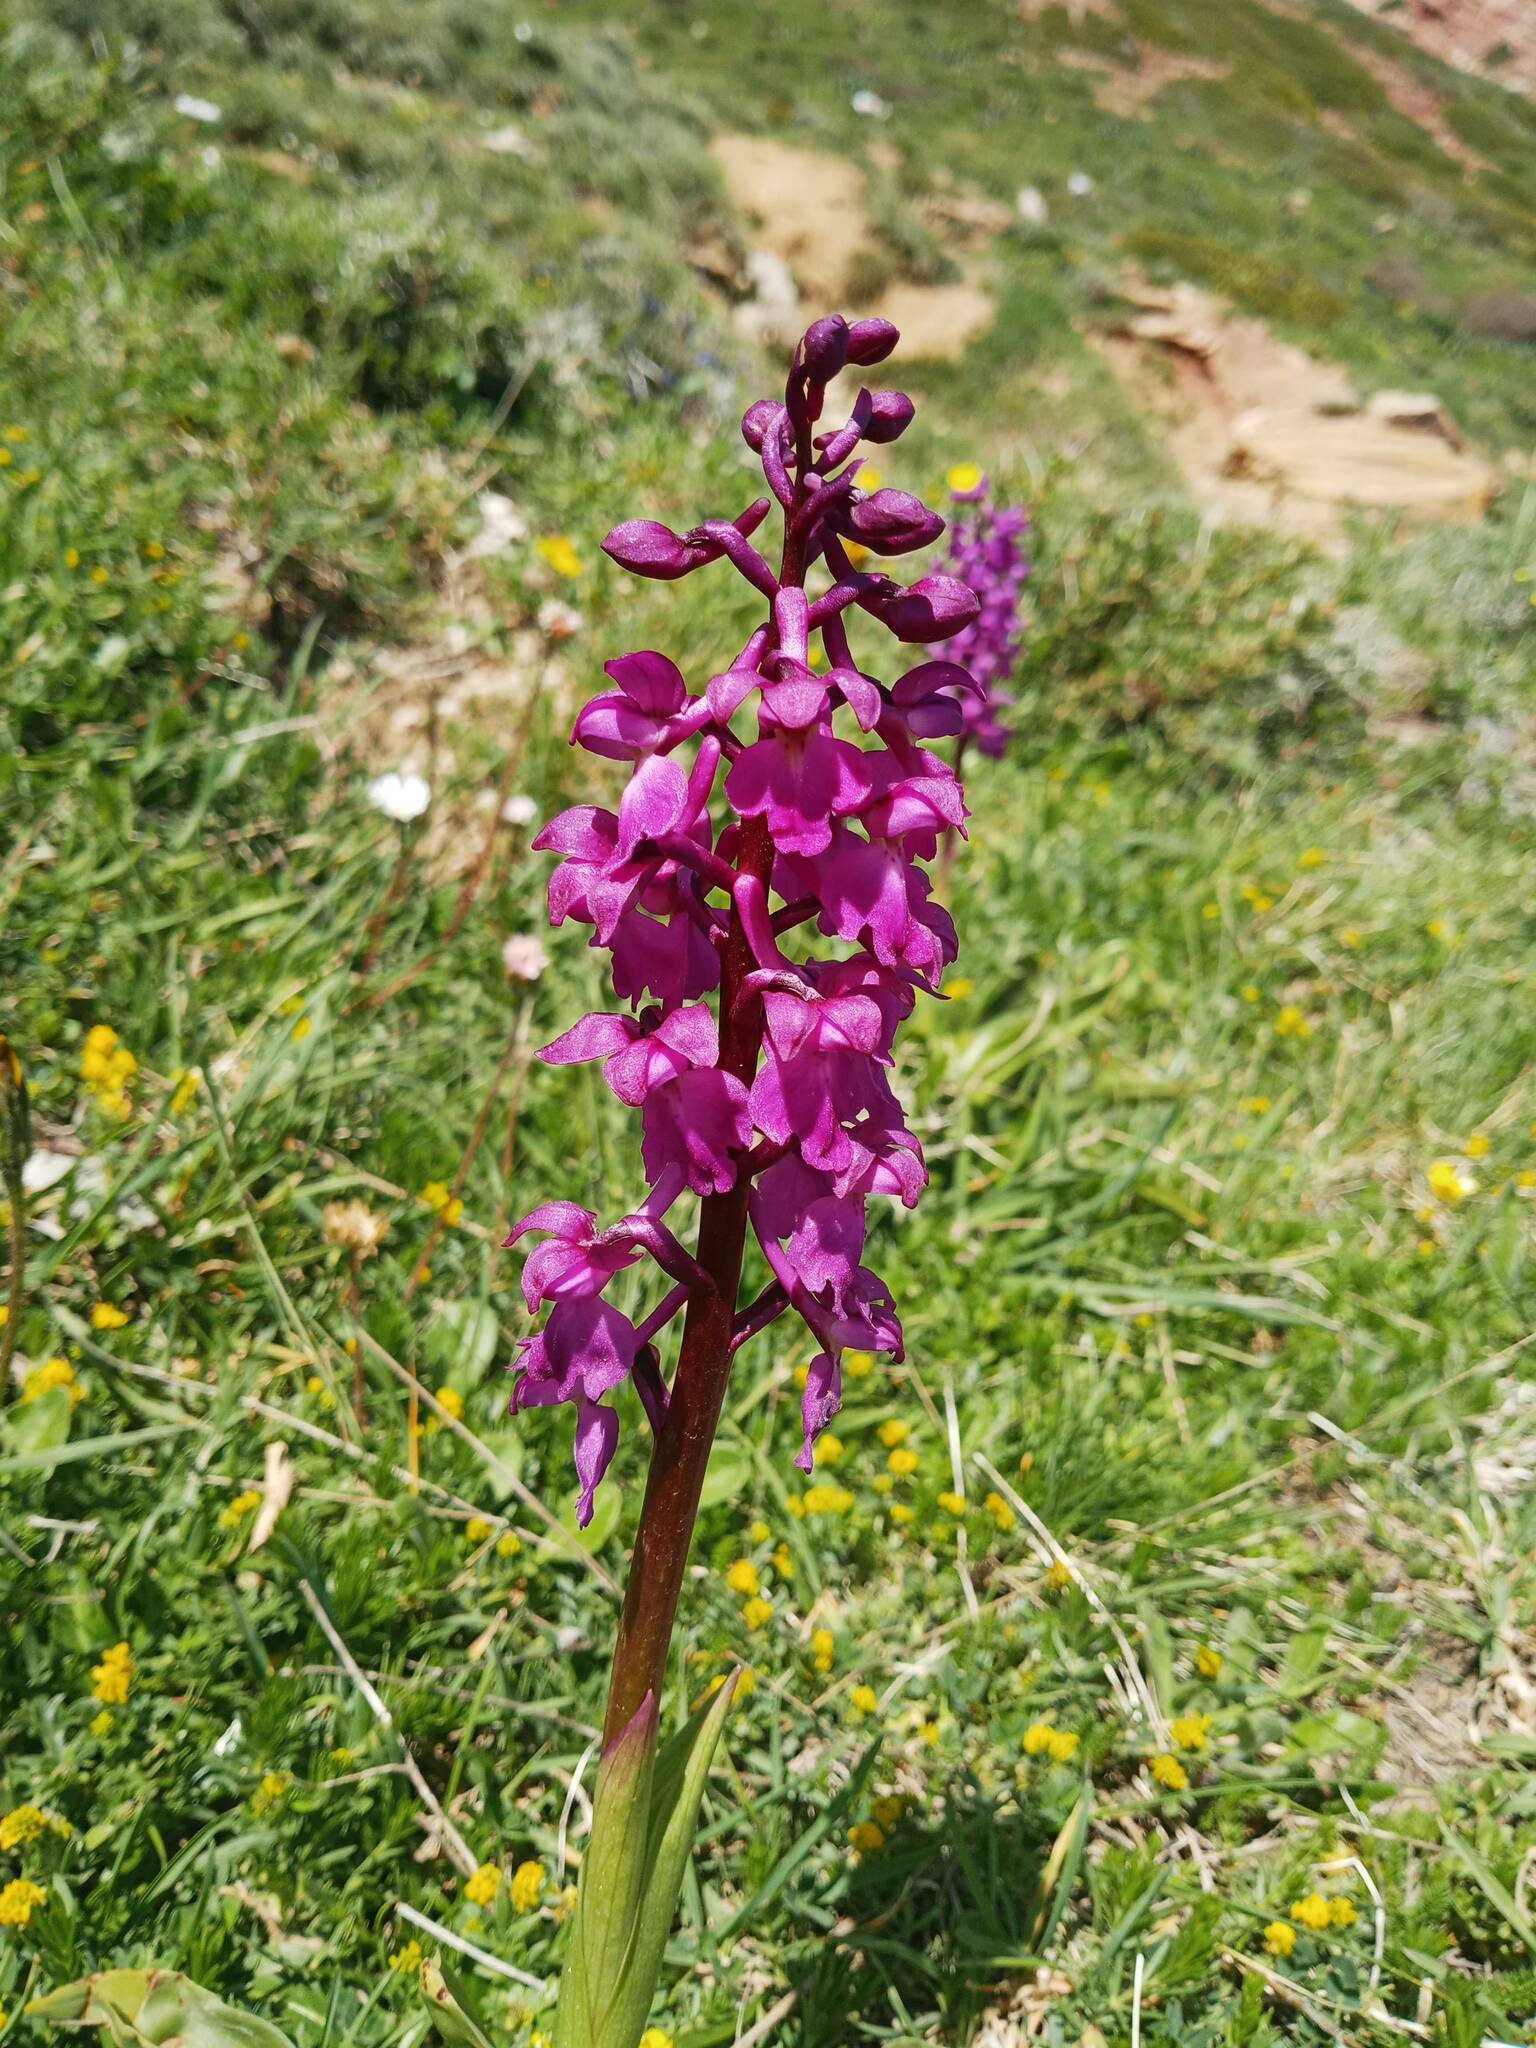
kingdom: Plantae
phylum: Tracheophyta
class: Liliopsida
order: Asparagales
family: Orchidaceae
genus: Orchis
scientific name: Orchis mascula
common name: Early-purple orchid
